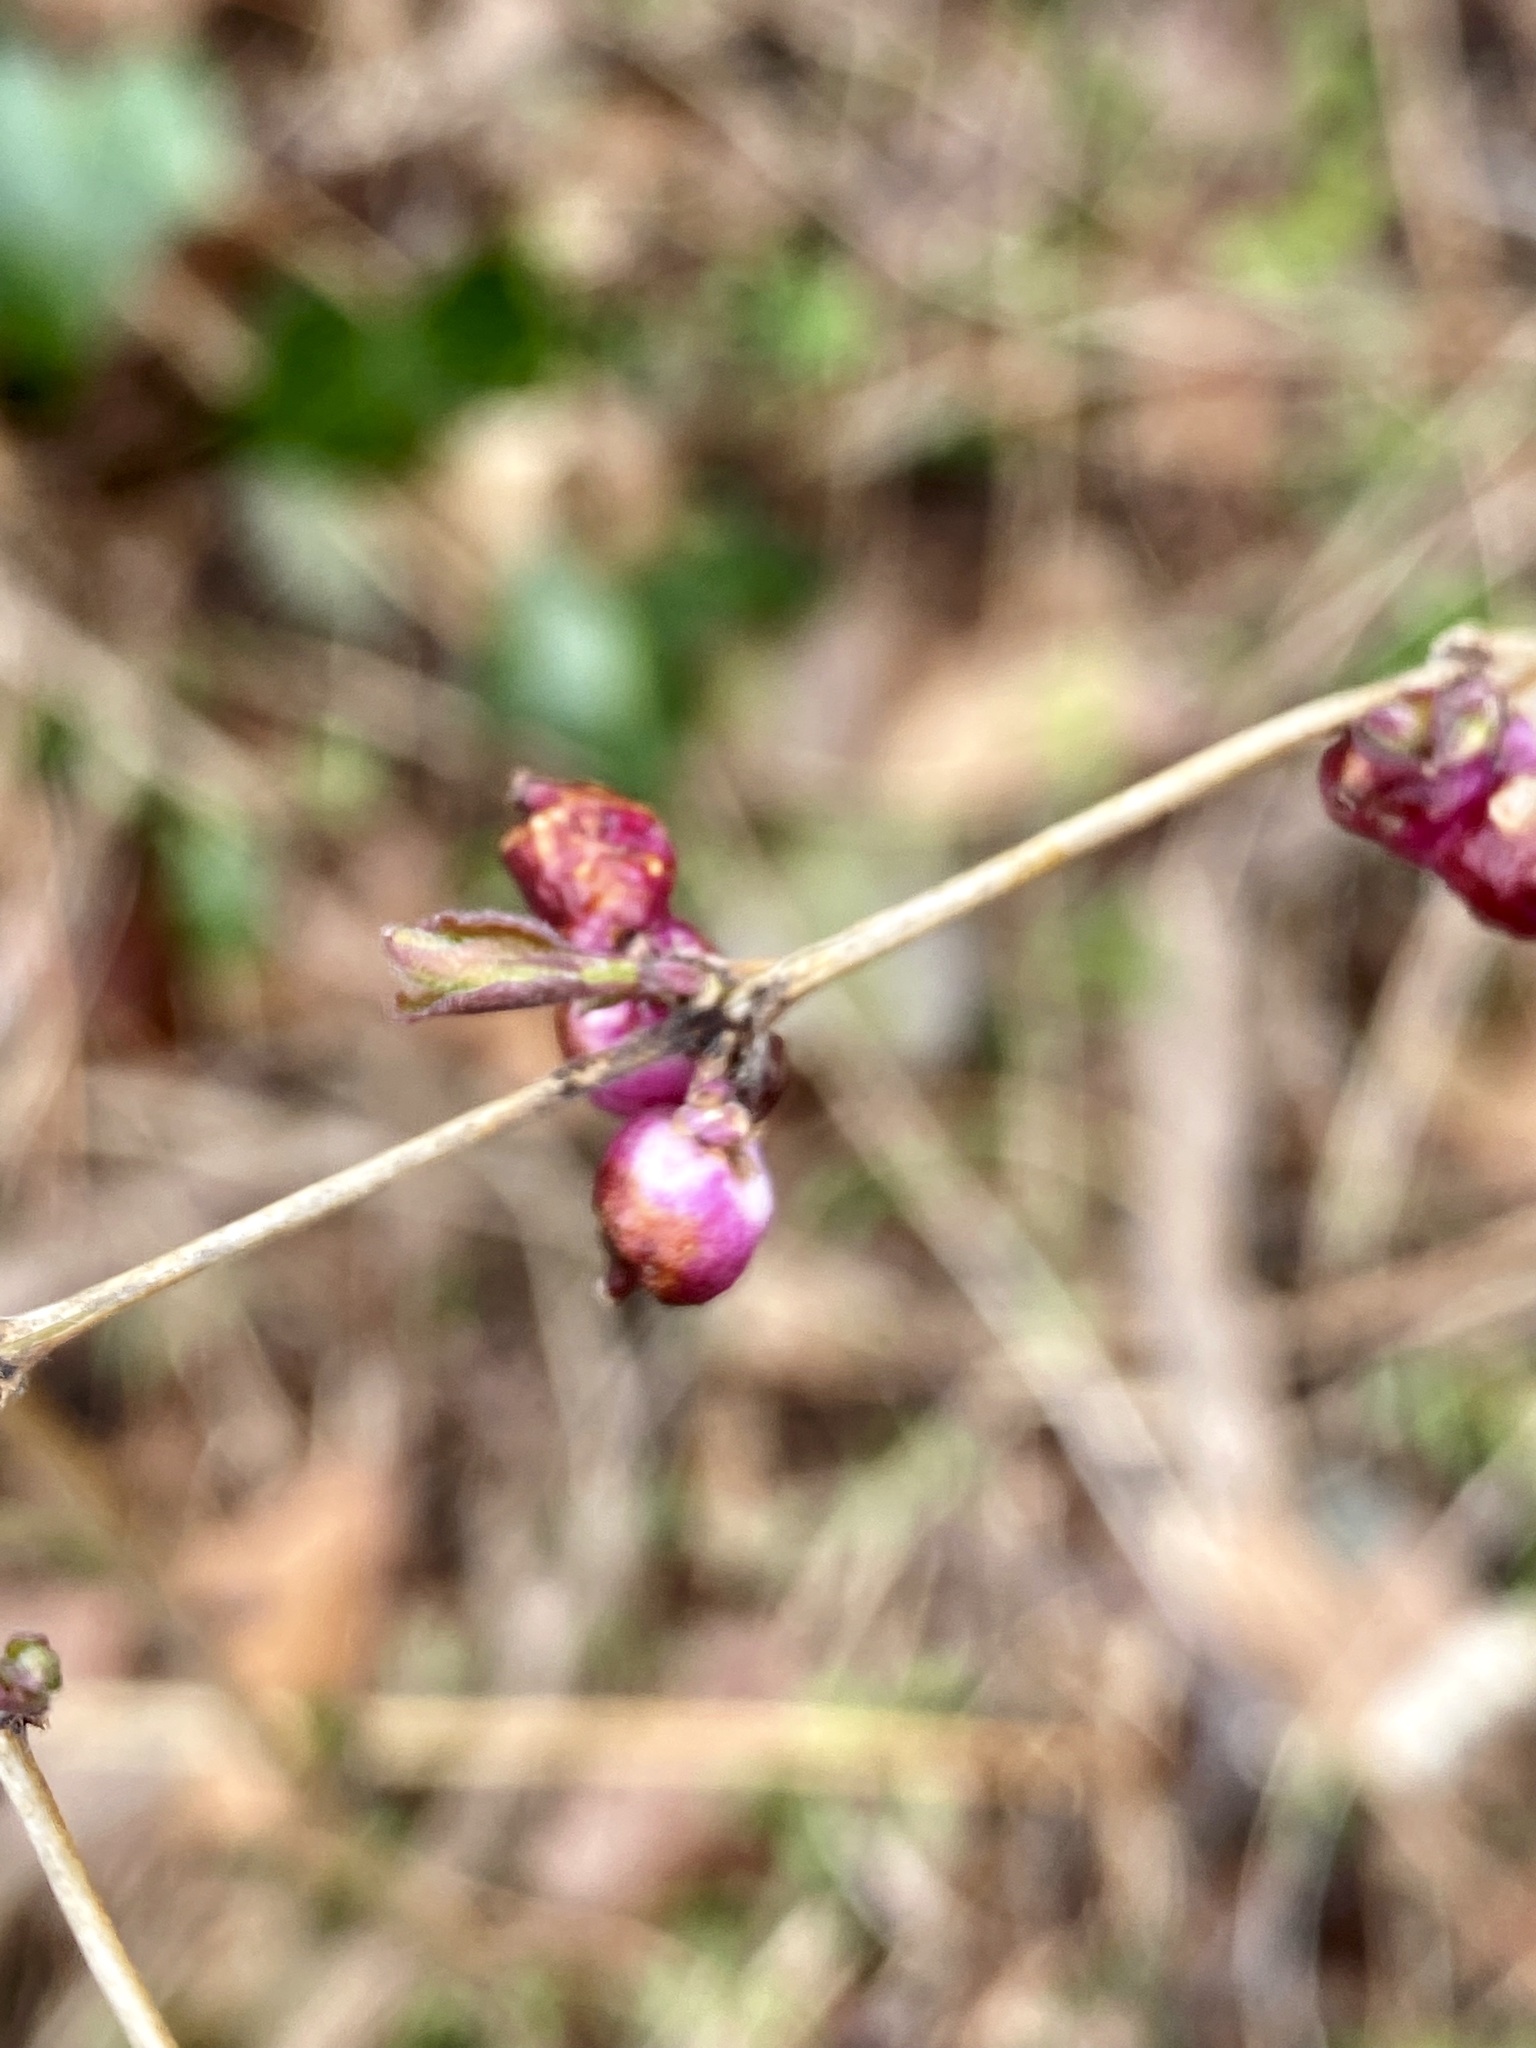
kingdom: Plantae
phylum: Tracheophyta
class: Magnoliopsida
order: Dipsacales
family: Caprifoliaceae
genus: Symphoricarpos
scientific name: Symphoricarpos orbiculatus
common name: Coralberry
